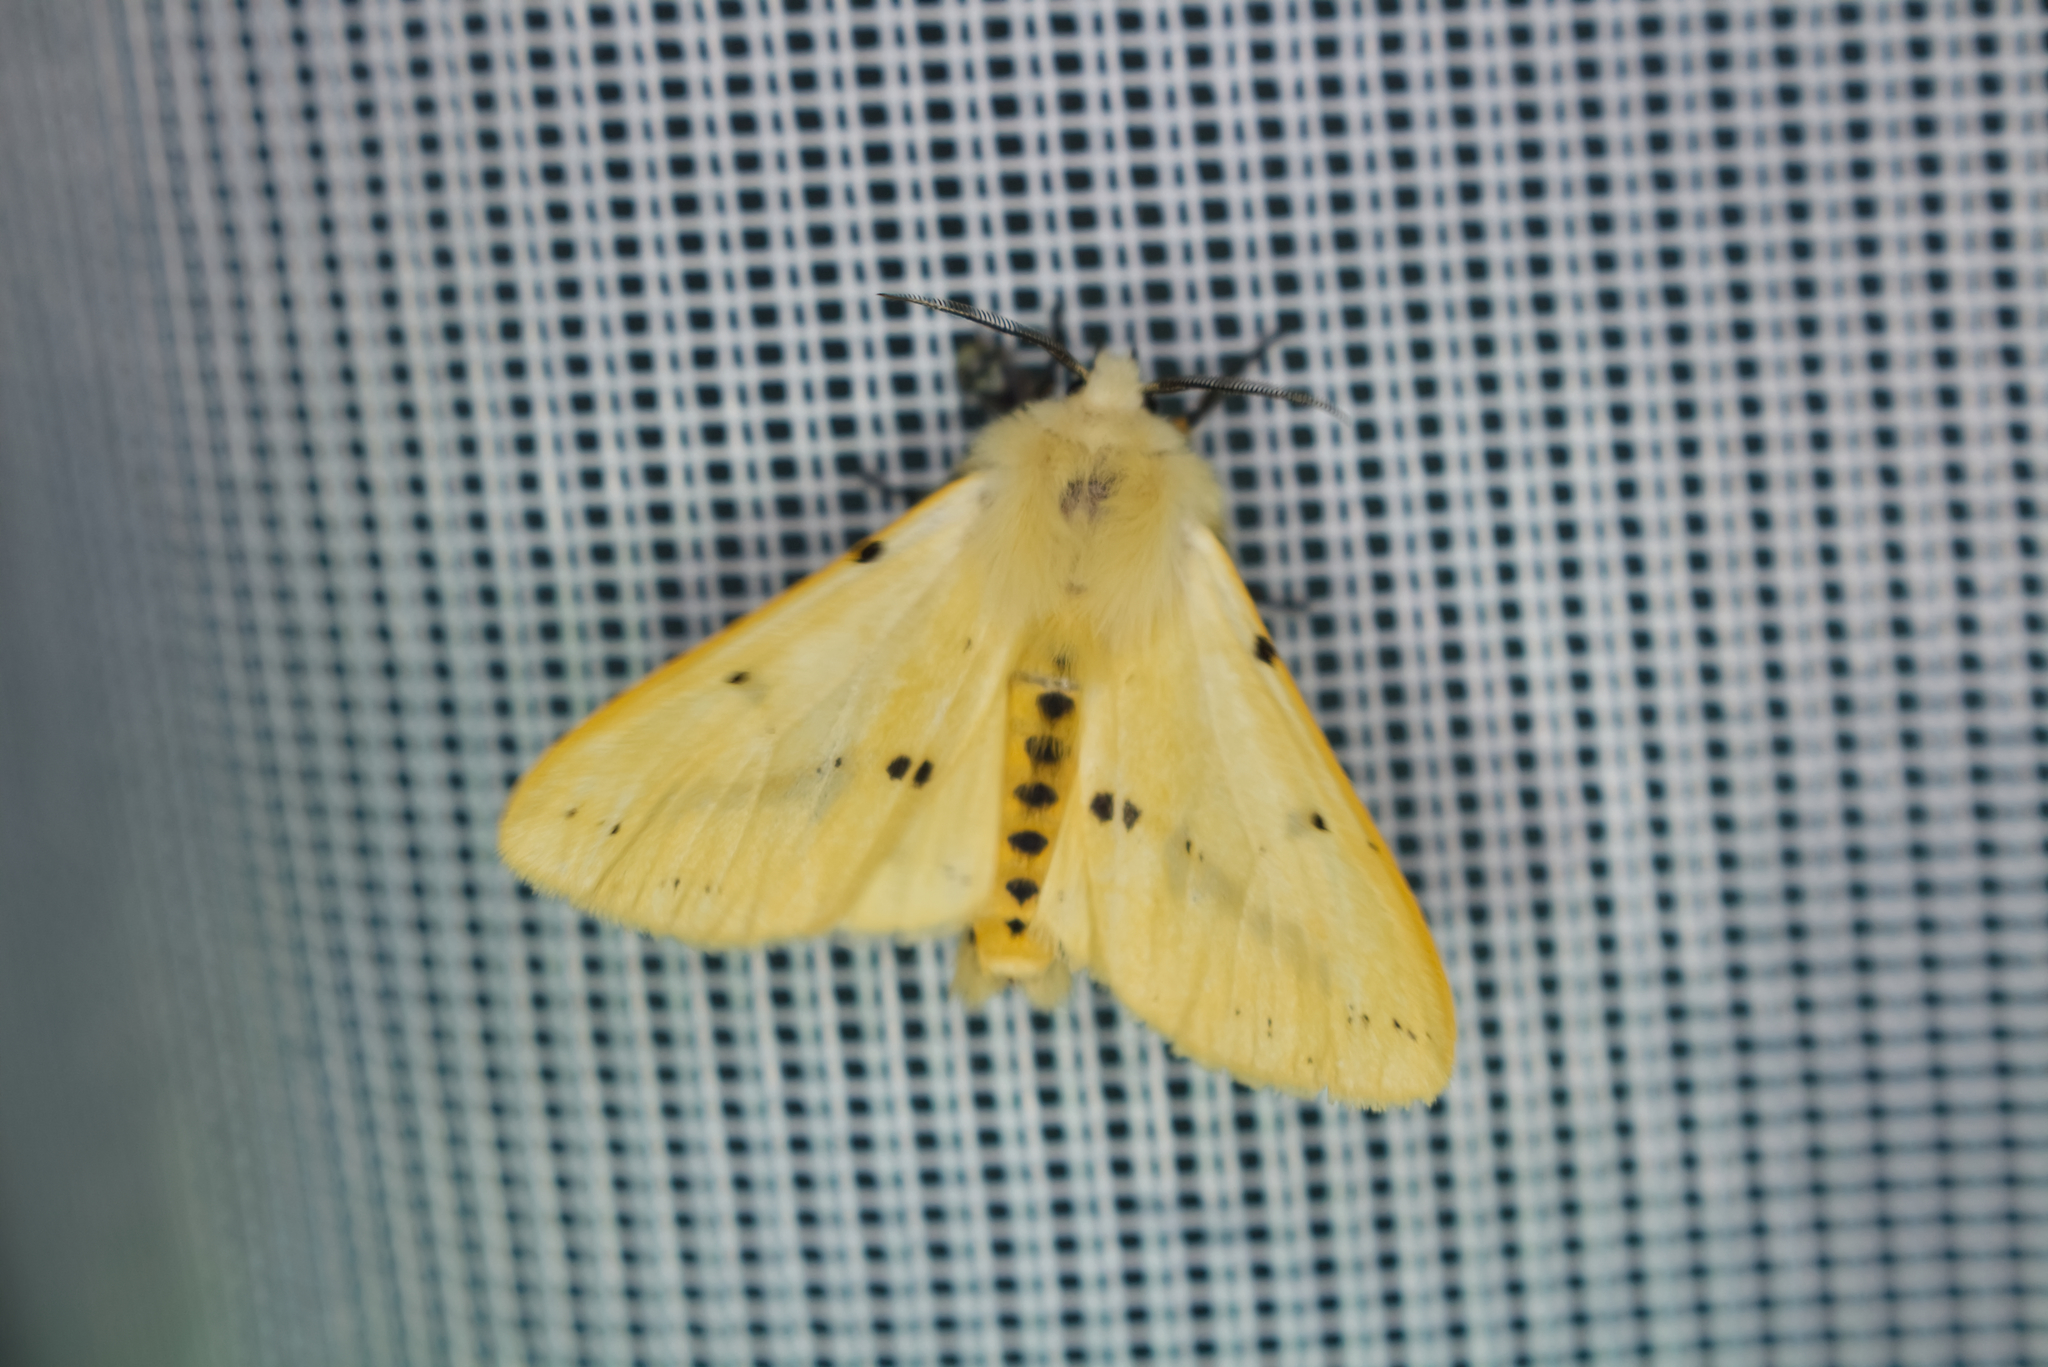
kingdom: Animalia
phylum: Arthropoda
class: Insecta
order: Lepidoptera
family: Erebidae
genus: Spilarctia
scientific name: Spilarctia lutea
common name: Buff ermine
